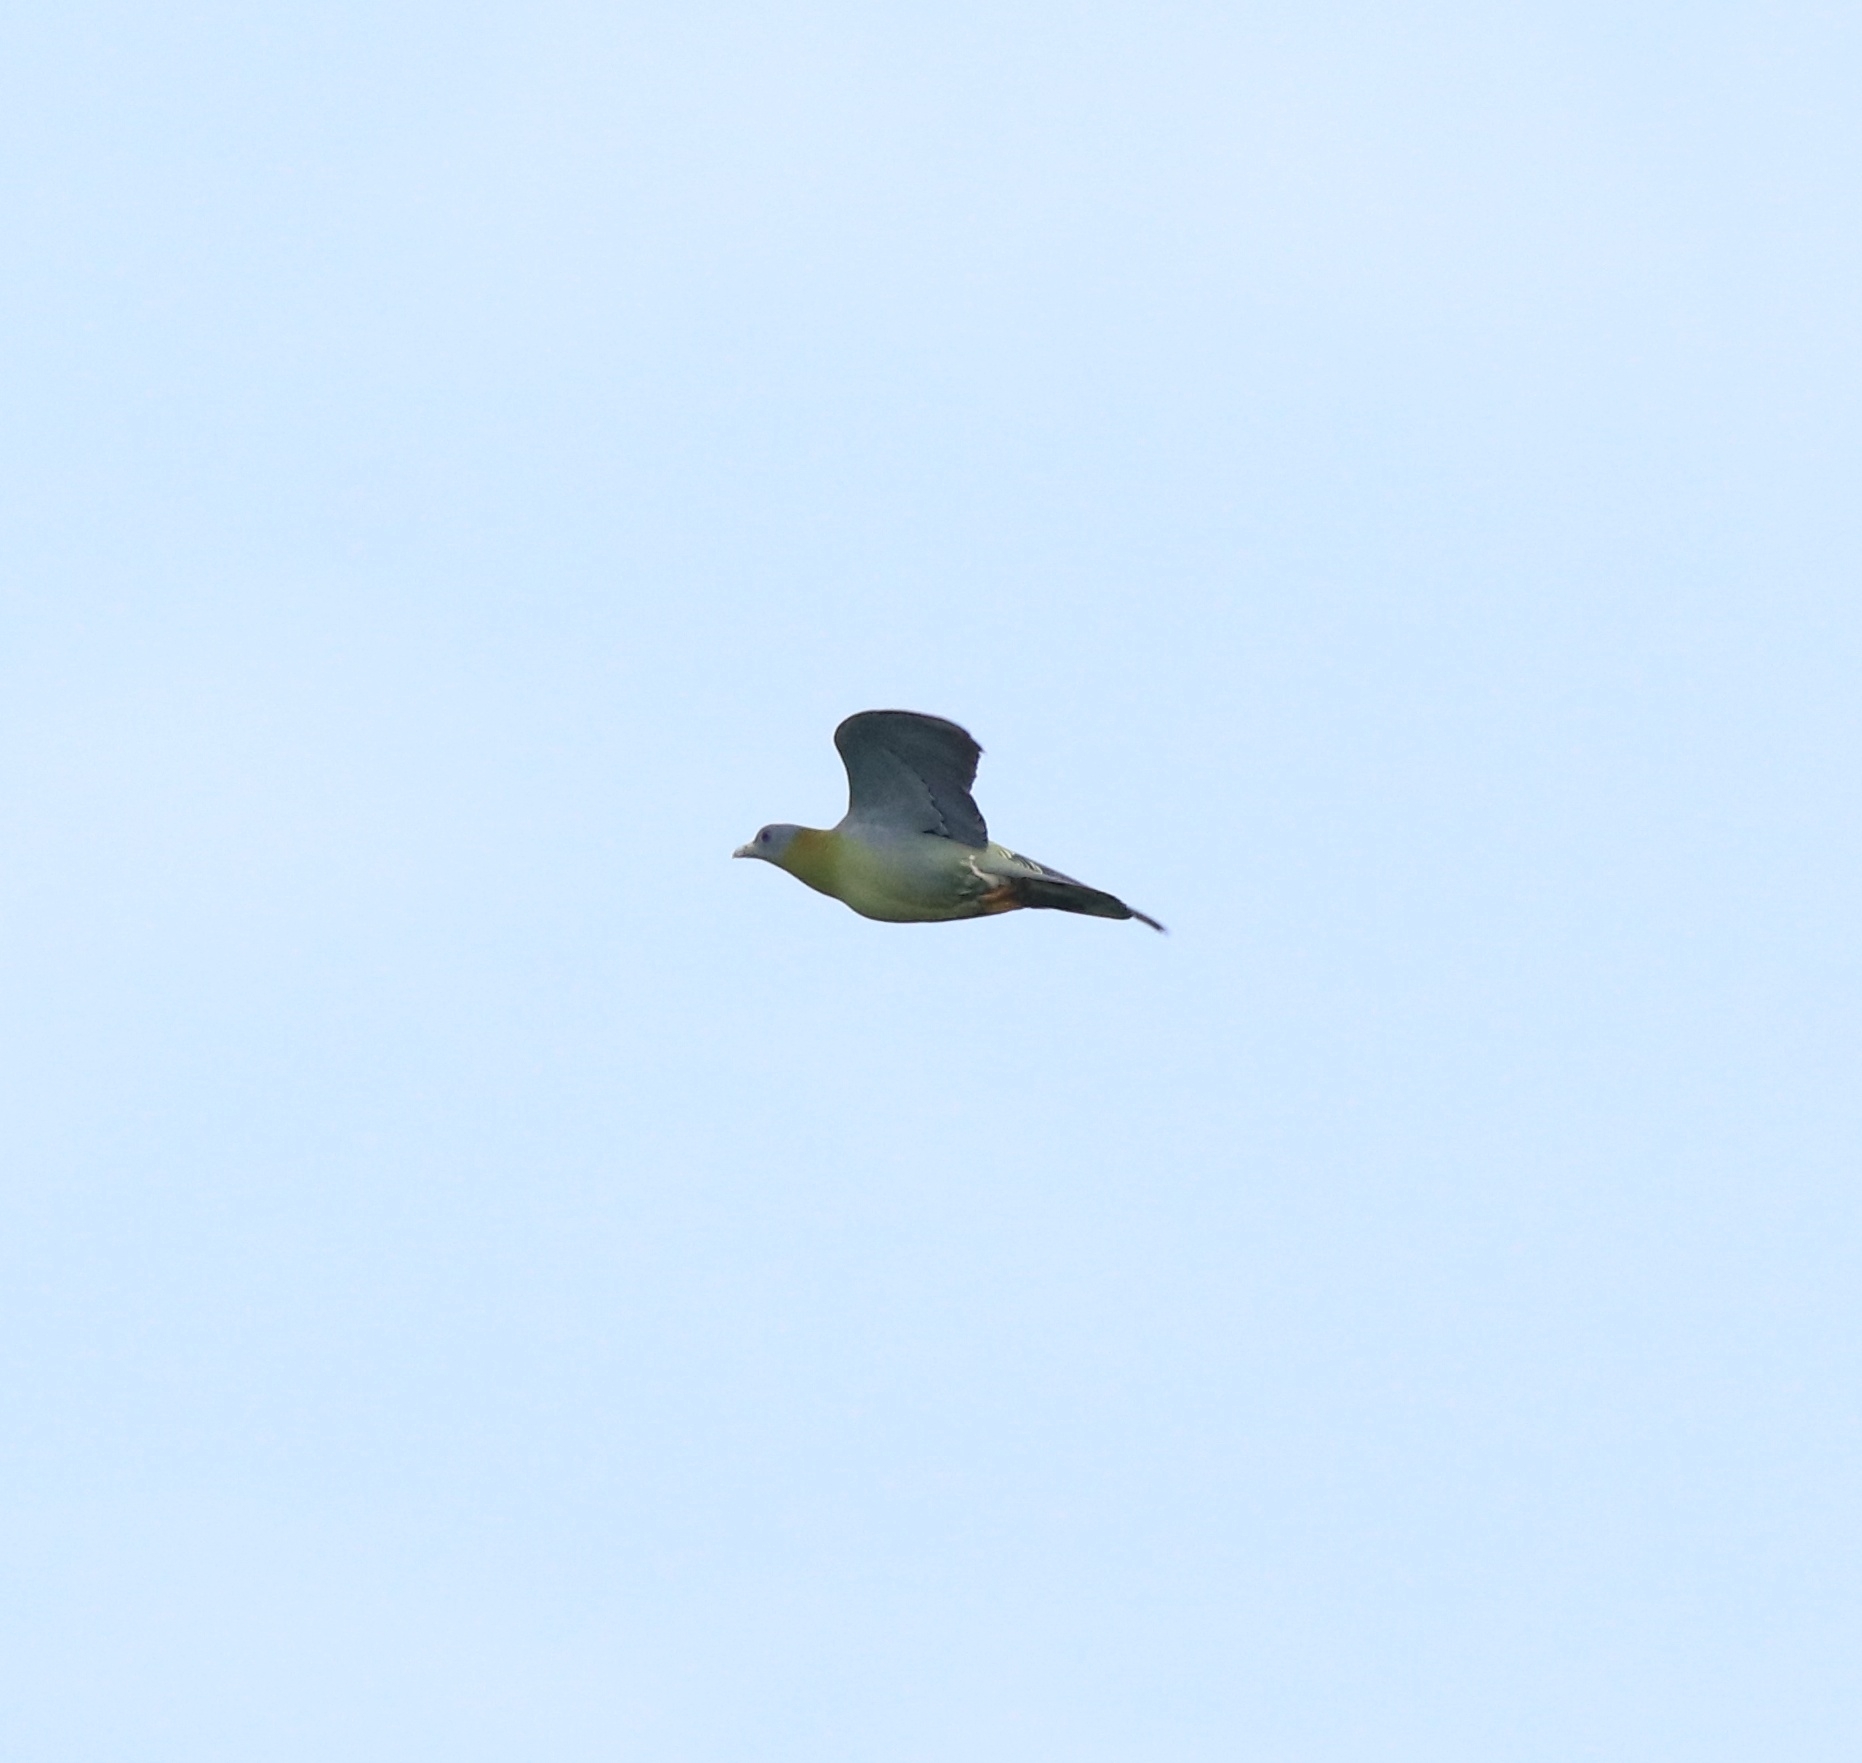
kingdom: Animalia
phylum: Chordata
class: Aves
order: Columbiformes
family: Columbidae
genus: Treron
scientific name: Treron phoenicopterus
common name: Yellow-footed green pigeon
